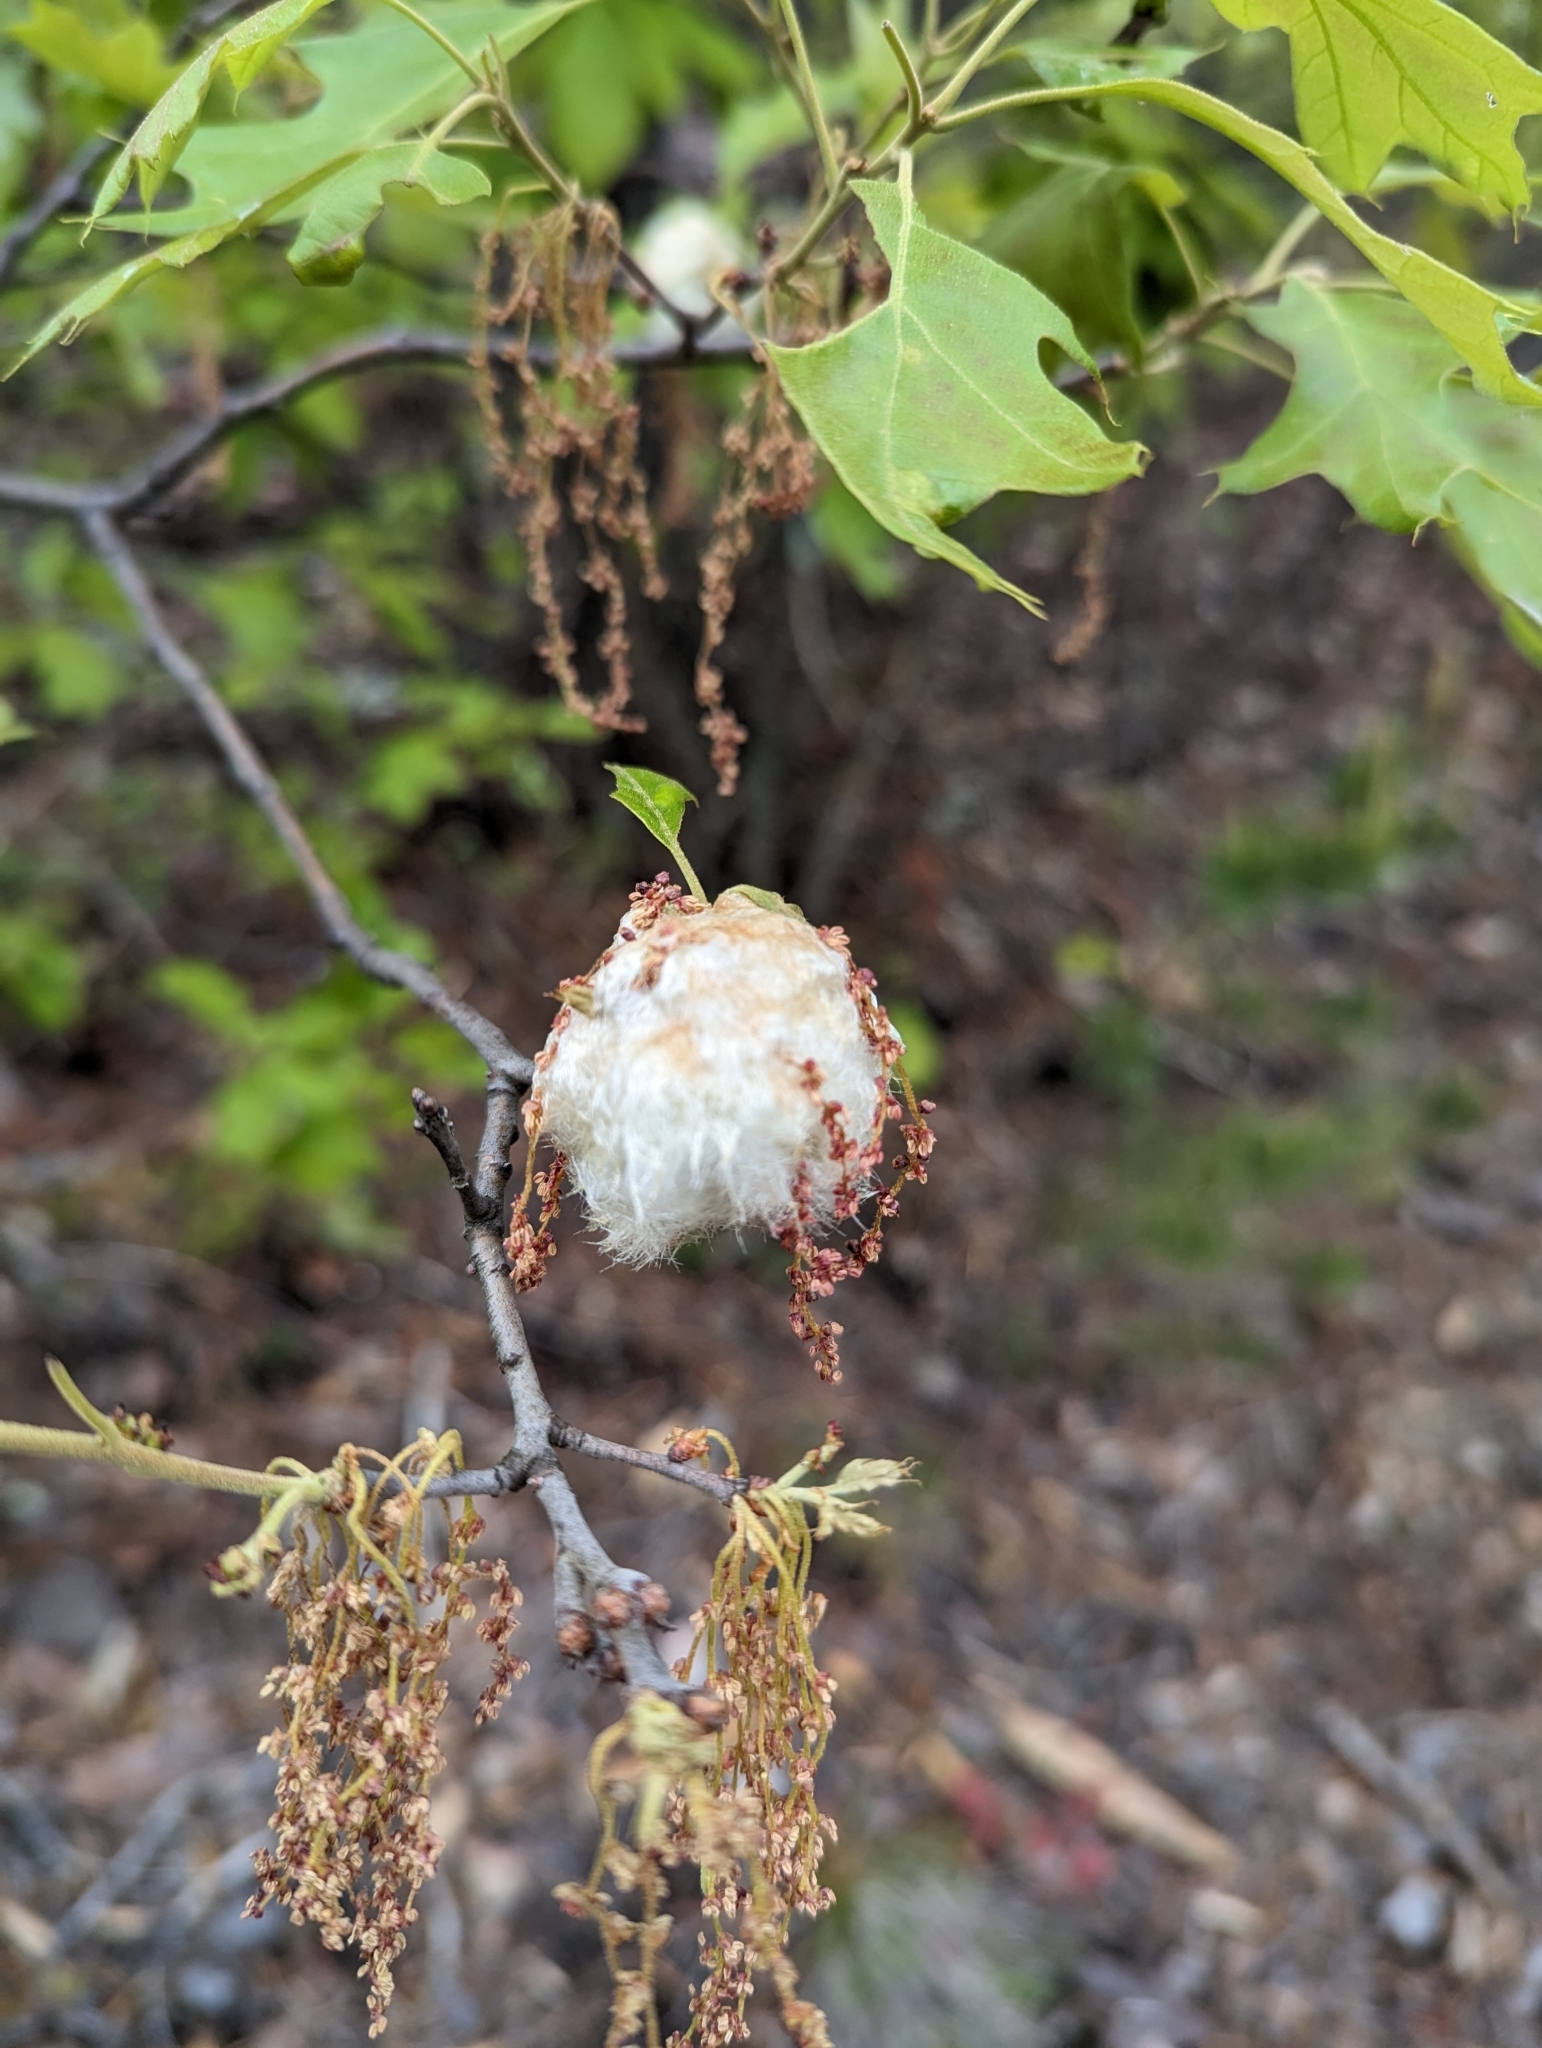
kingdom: Animalia
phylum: Arthropoda
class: Insecta
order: Hymenoptera
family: Cynipidae
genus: Callirhytis
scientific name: Callirhytis
